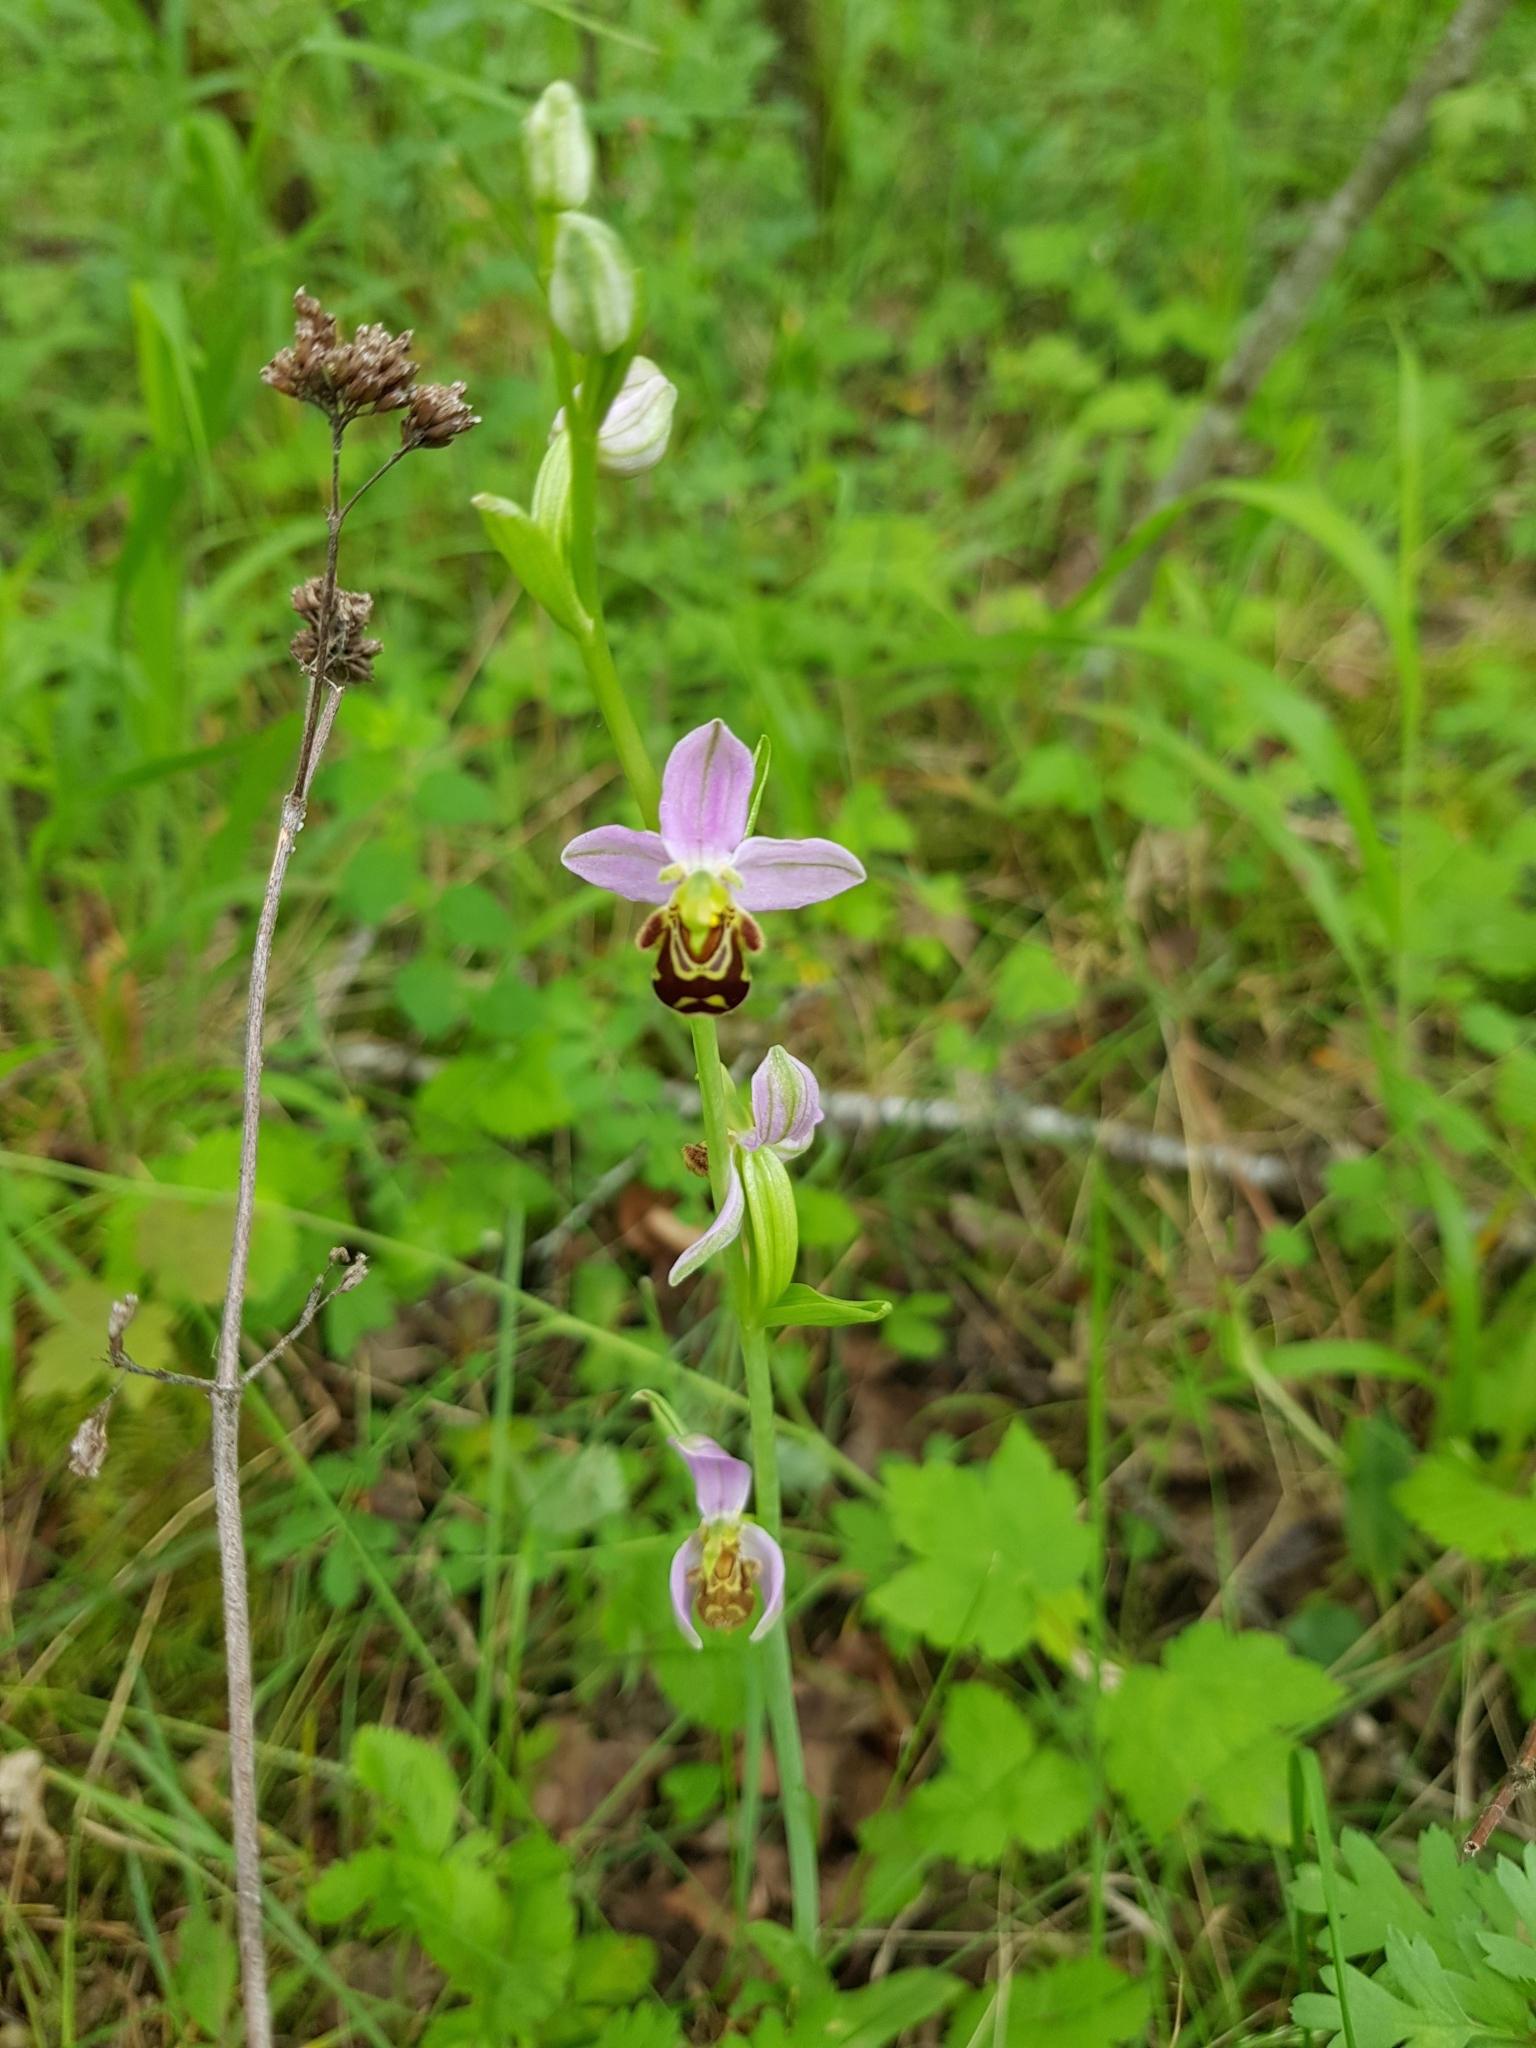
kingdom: Plantae
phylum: Tracheophyta
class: Liliopsida
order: Asparagales
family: Orchidaceae
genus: Ophrys
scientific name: Ophrys apifera
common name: Bee orchid
